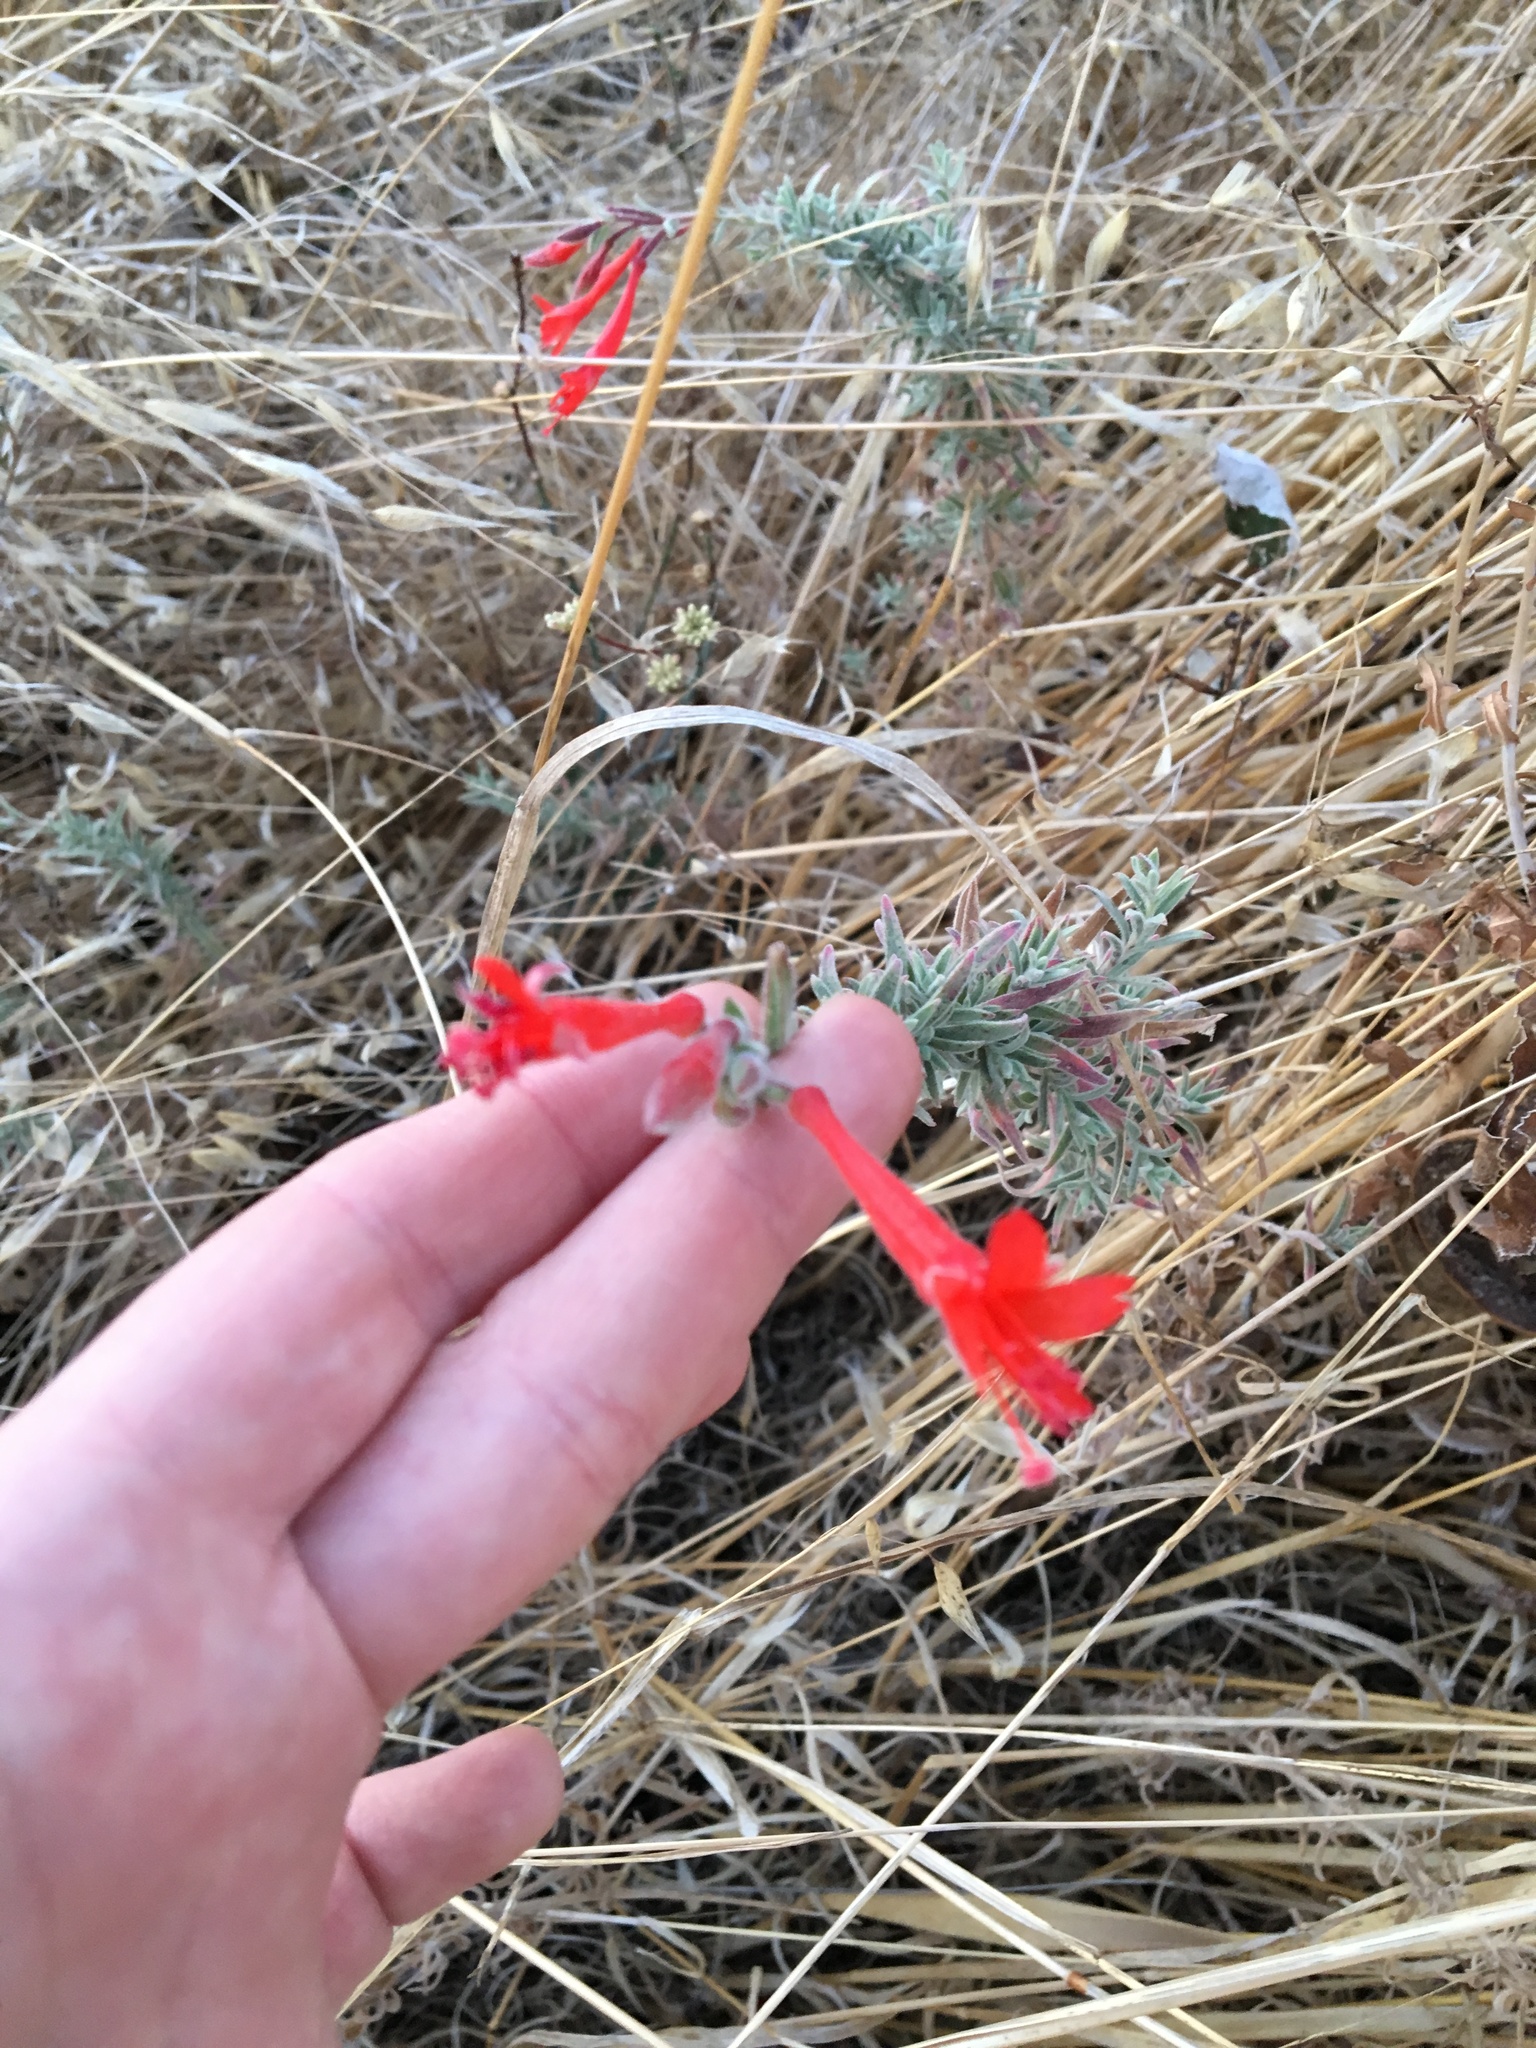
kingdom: Plantae
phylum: Tracheophyta
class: Magnoliopsida
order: Myrtales
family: Onagraceae
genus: Epilobium
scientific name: Epilobium canum
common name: California-fuchsia
